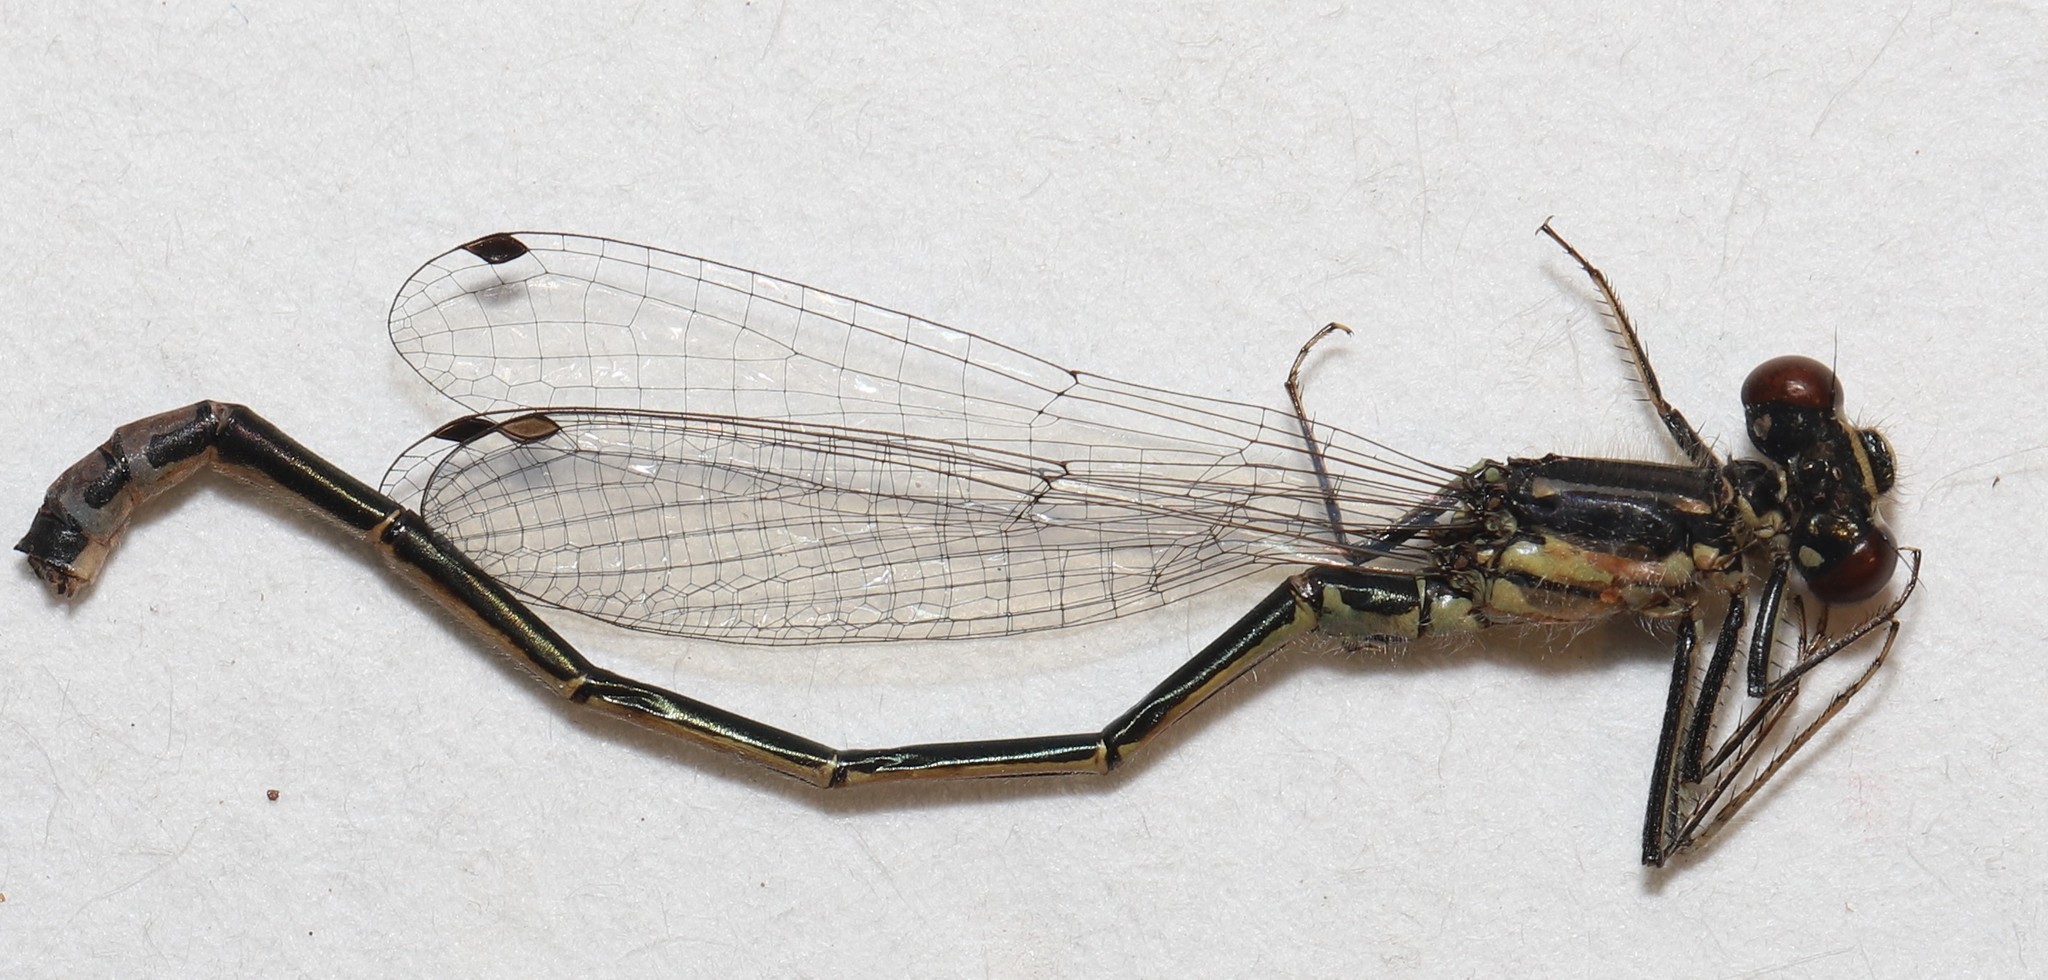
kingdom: Animalia
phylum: Arthropoda
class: Insecta
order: Odonata
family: Coenagrionidae
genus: Ischnura
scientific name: Ischnura verticalis
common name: Eastern forktail
